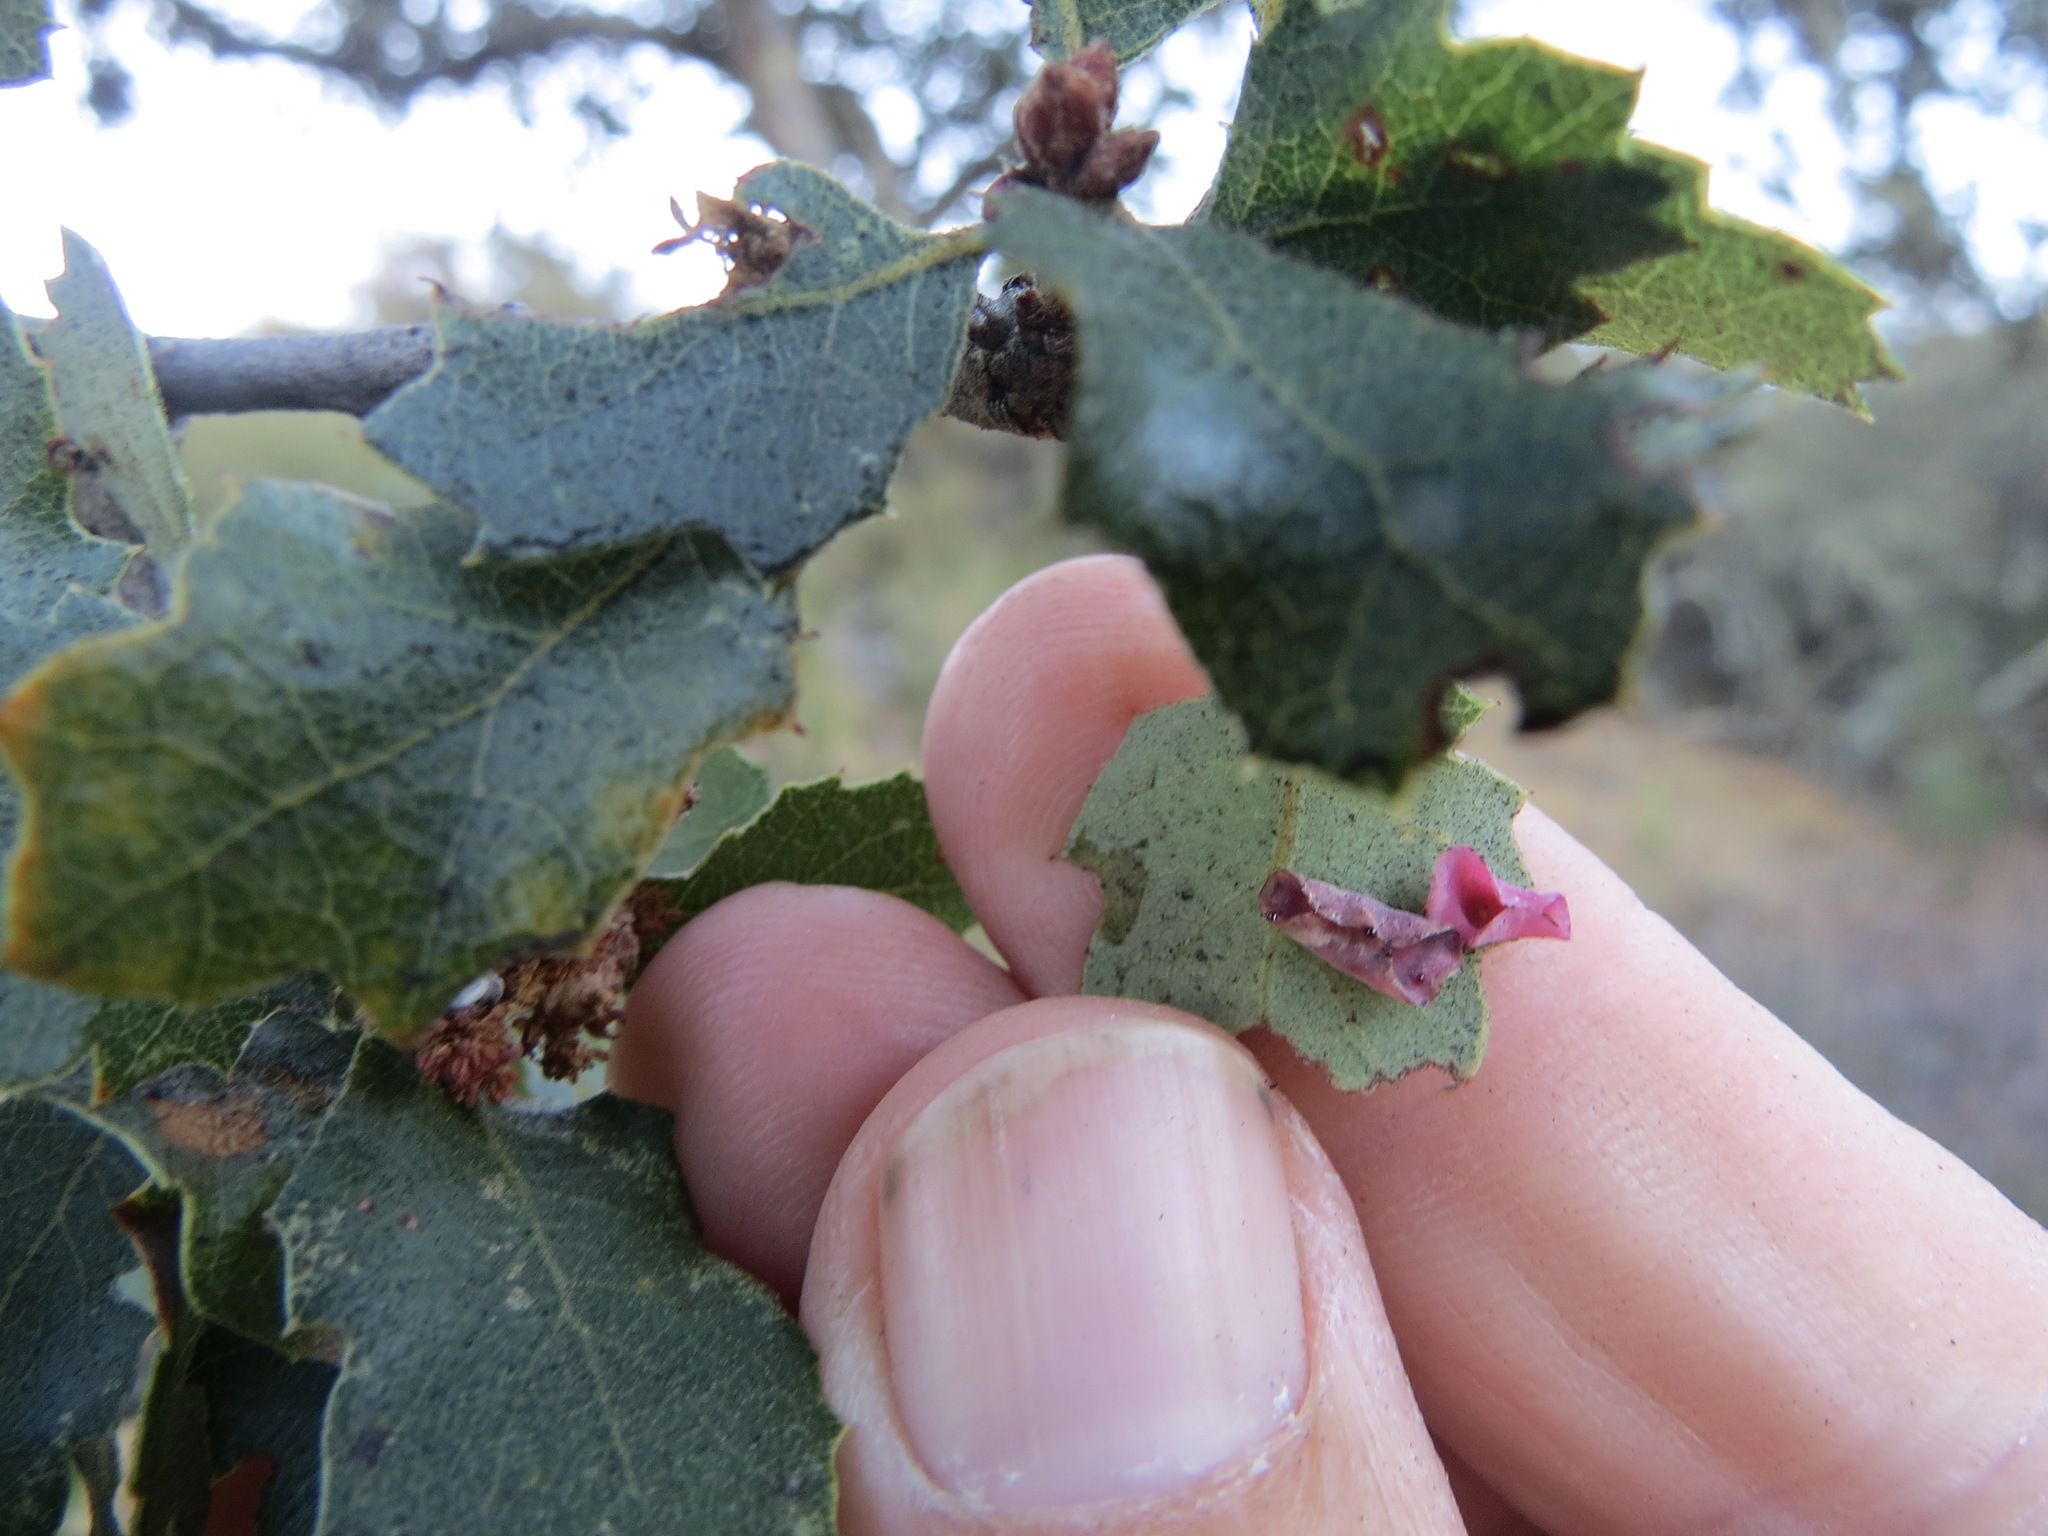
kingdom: Animalia
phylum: Arthropoda
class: Insecta
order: Hymenoptera
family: Cynipidae
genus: Andricus
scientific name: Andricus
